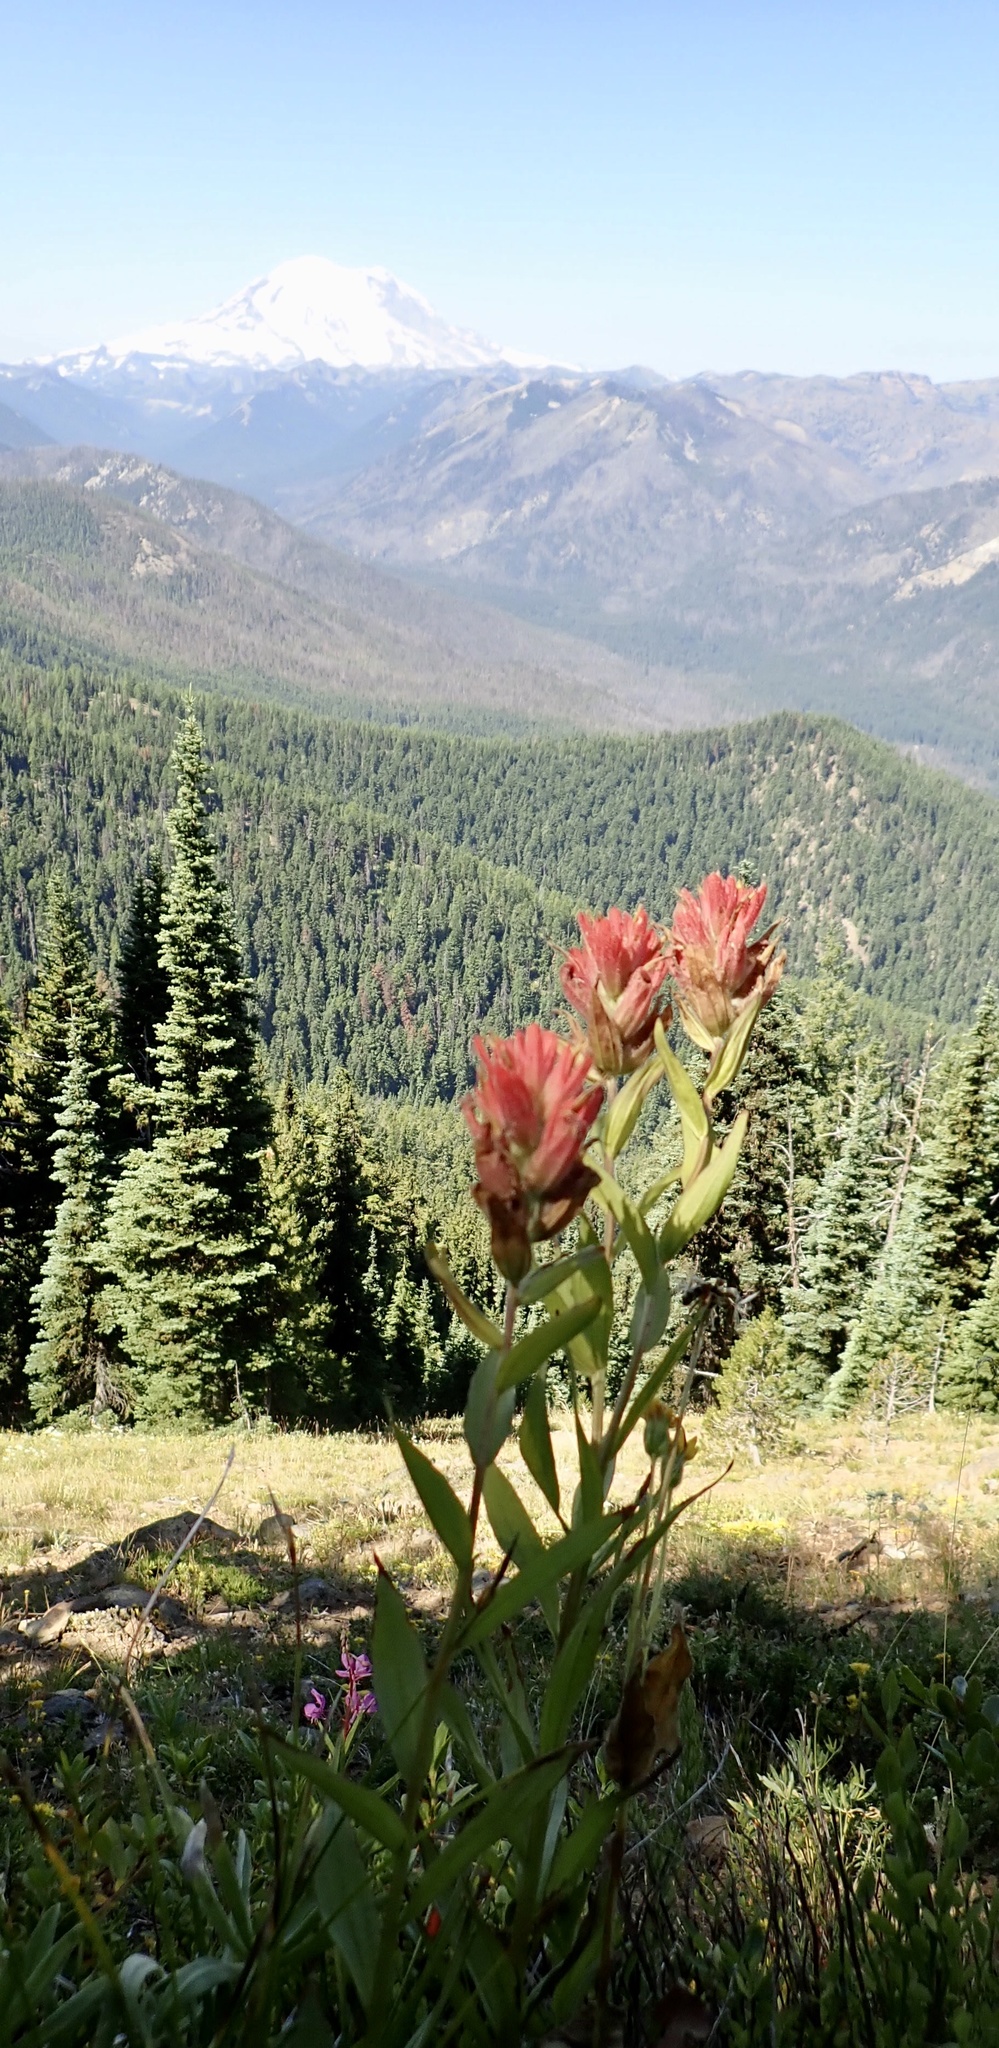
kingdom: Plantae
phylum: Tracheophyta
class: Magnoliopsida
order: Lamiales
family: Orobanchaceae
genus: Castilleja
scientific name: Castilleja miniata
